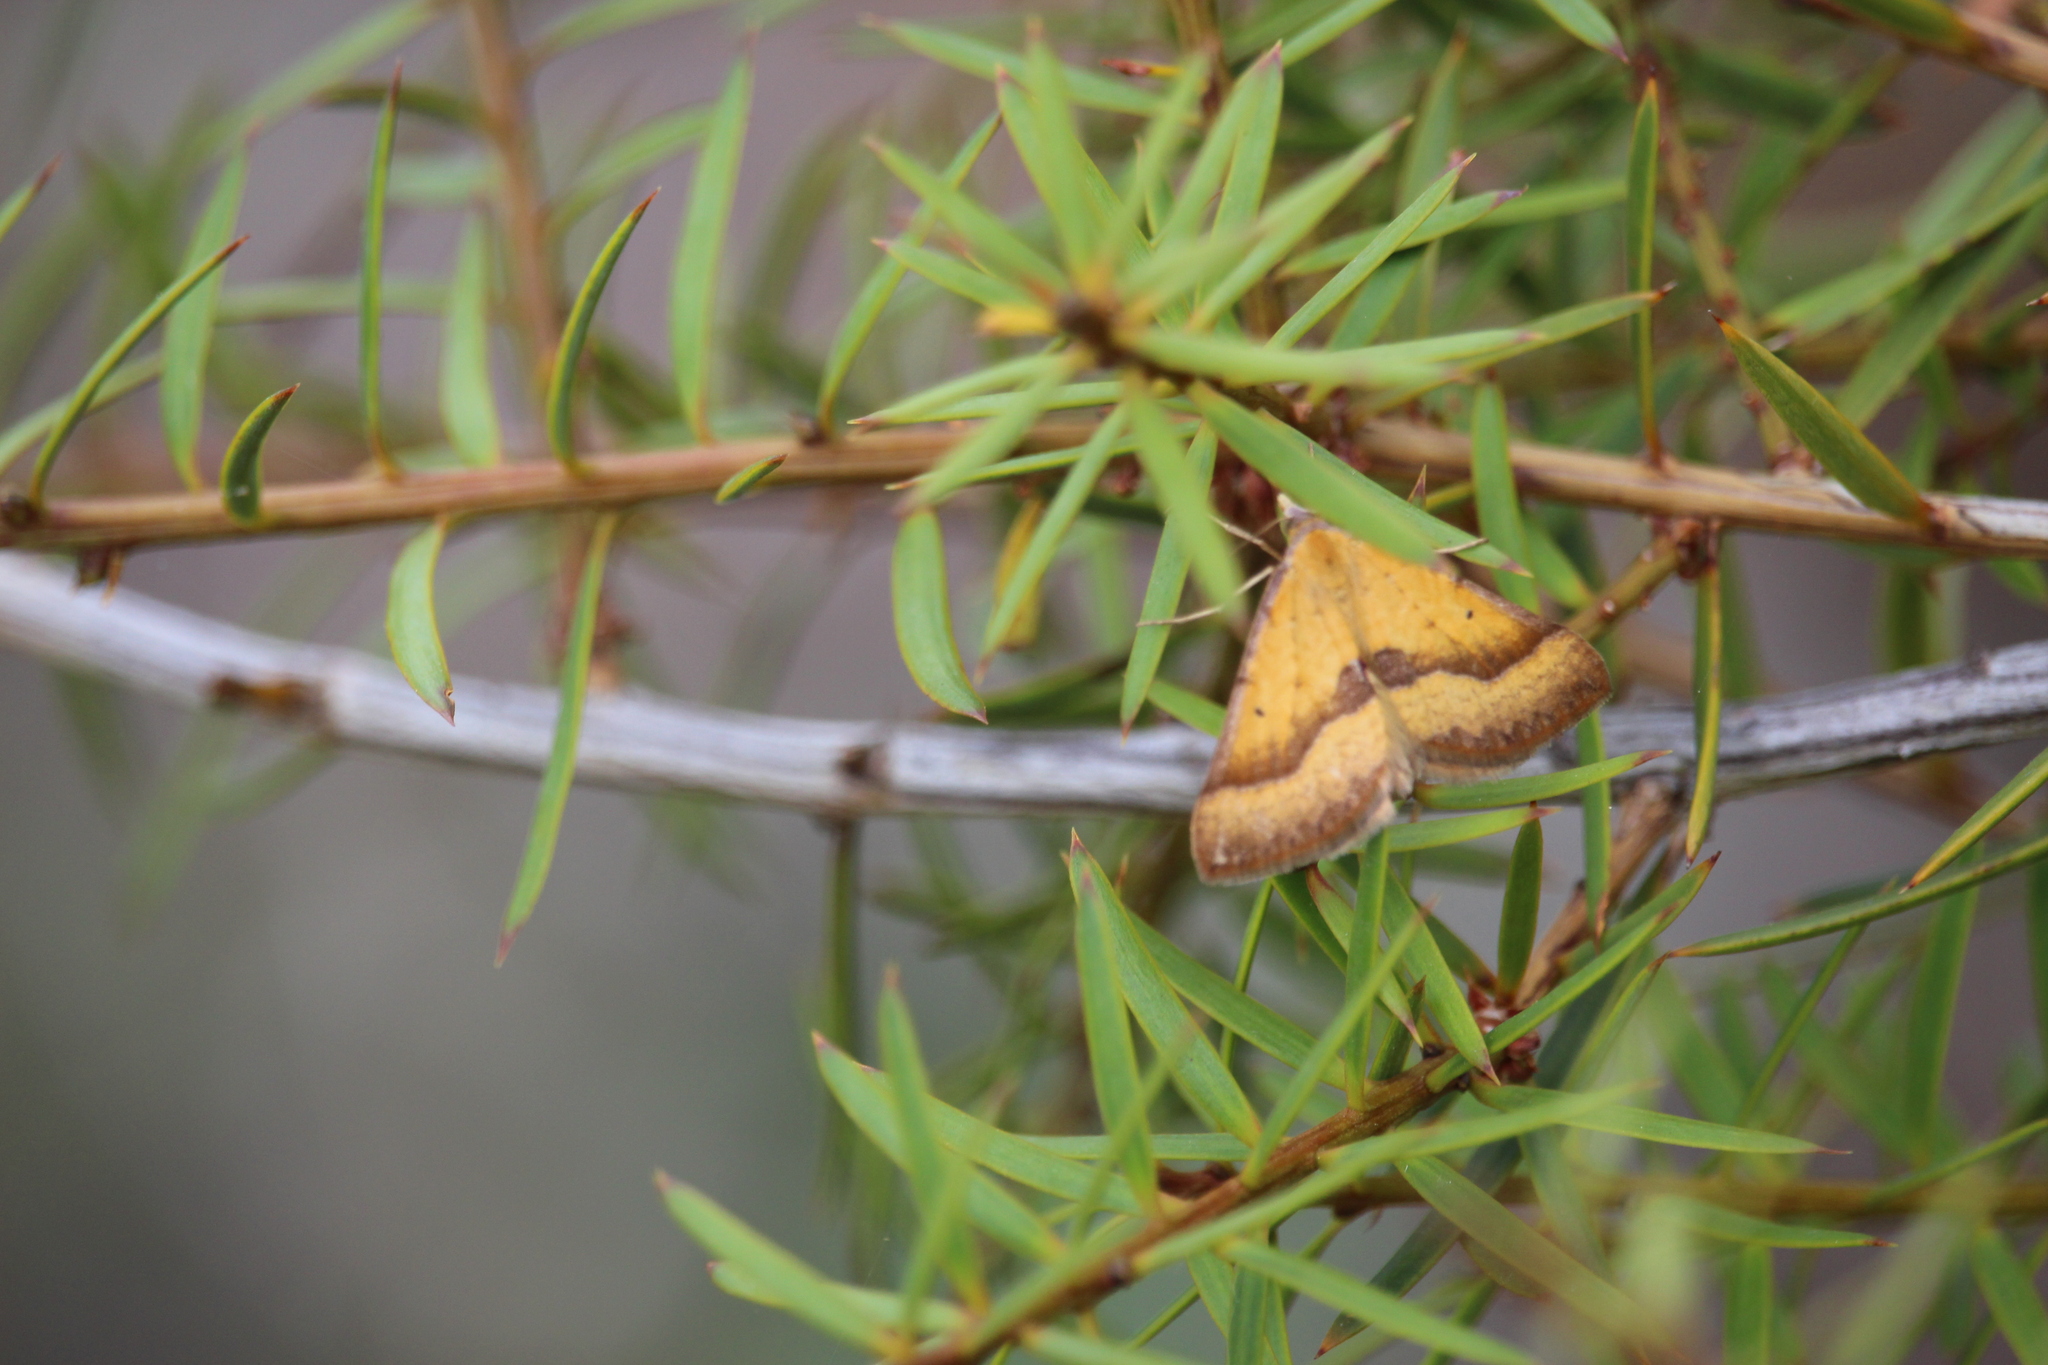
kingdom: Animalia
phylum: Arthropoda
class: Insecta
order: Lepidoptera
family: Geometridae
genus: Anachloris
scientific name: Anachloris subochraria
